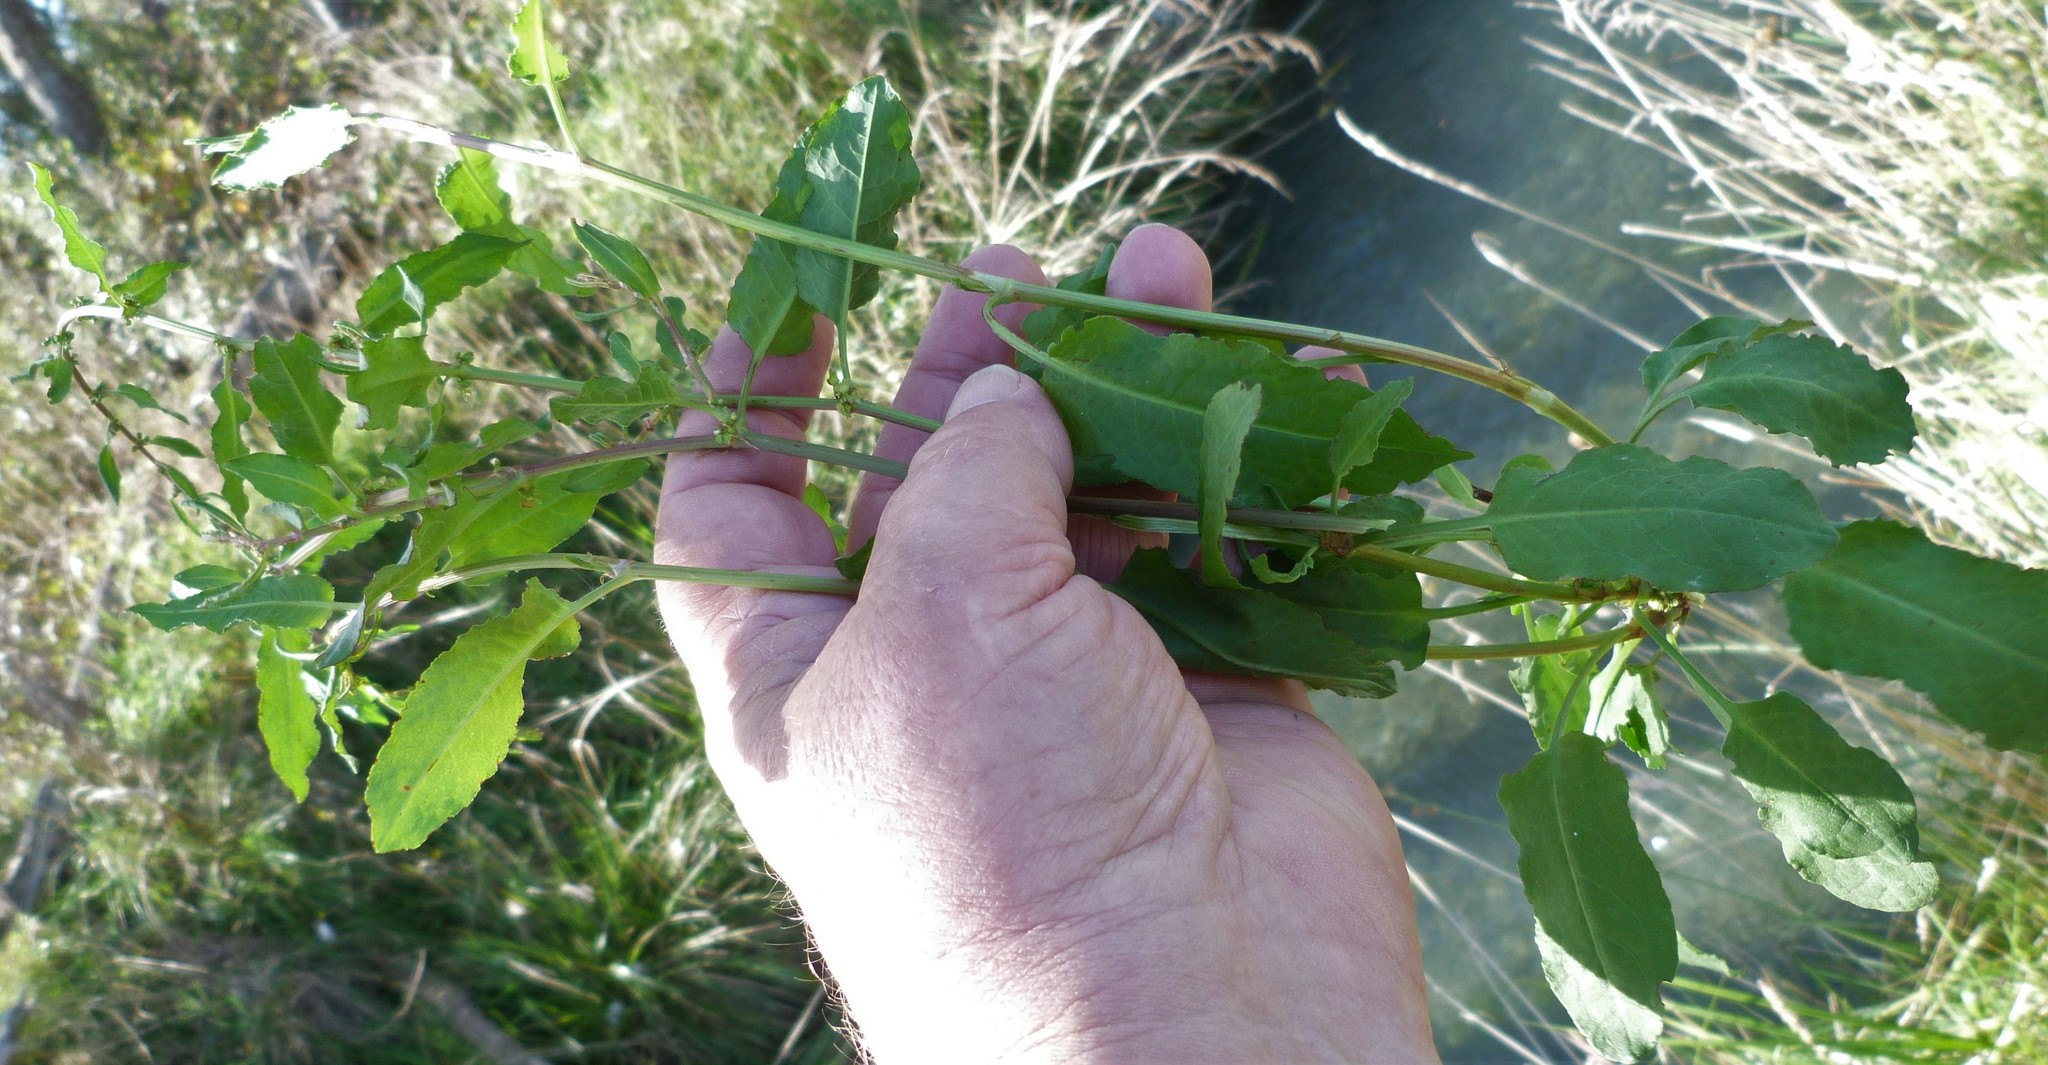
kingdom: Plantae
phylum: Tracheophyta
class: Magnoliopsida
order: Caryophyllales
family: Polygonaceae
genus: Rumex
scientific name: Rumex conglomeratus
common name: Clustered dock
